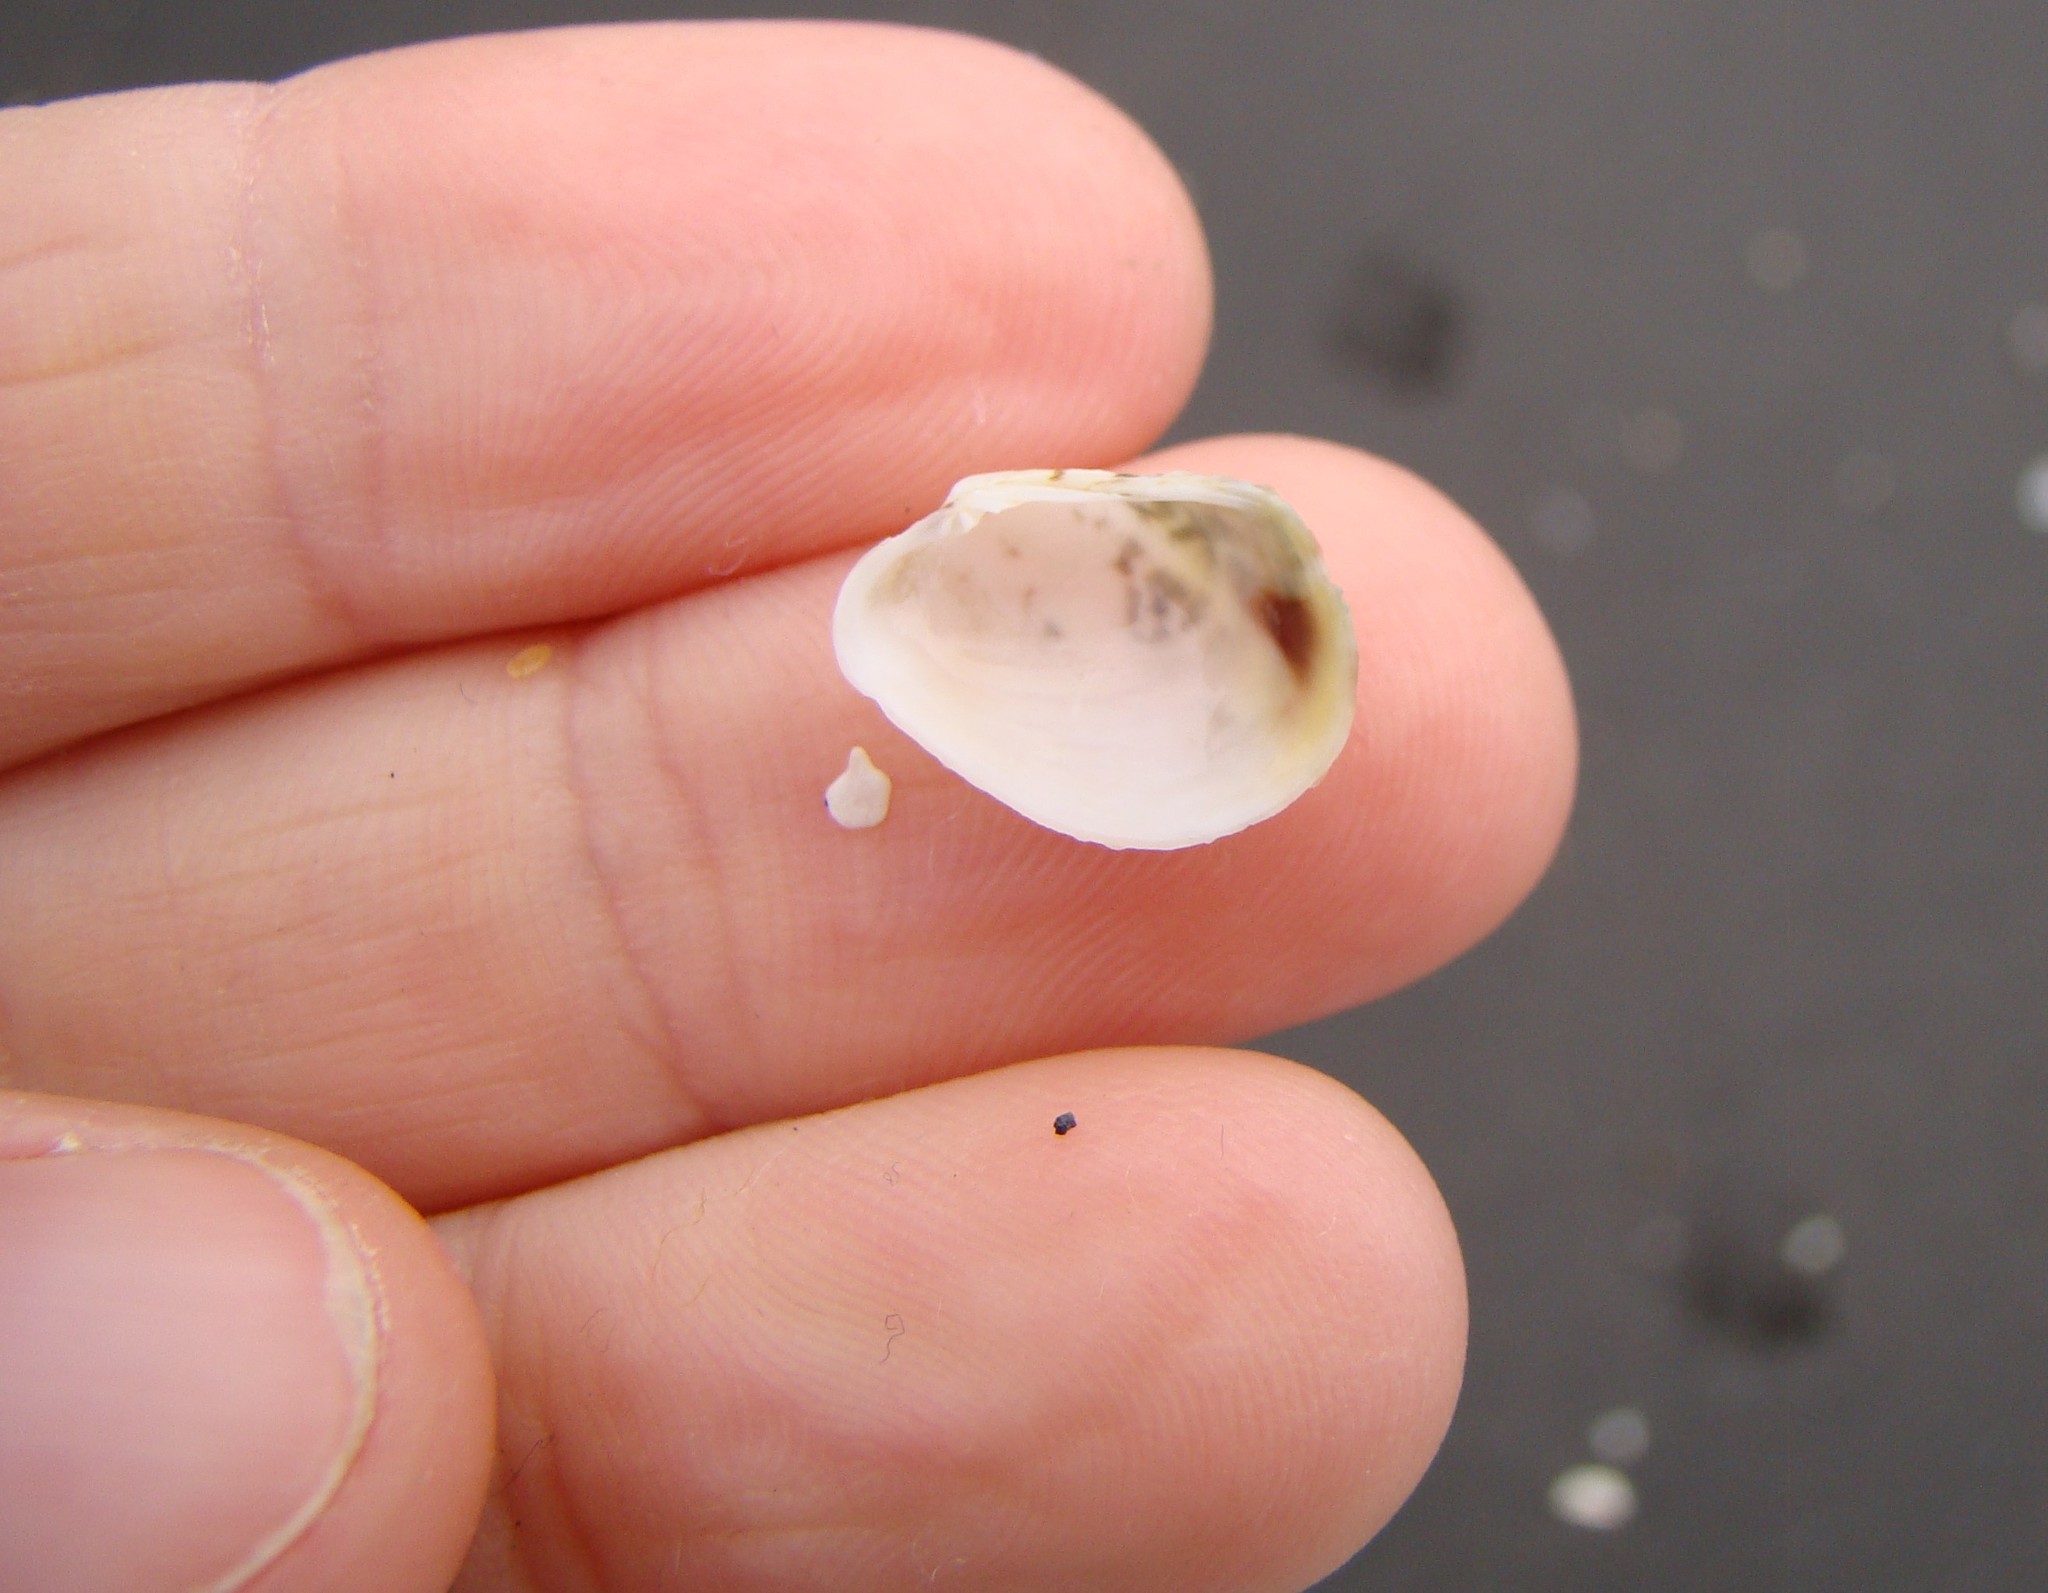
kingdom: Animalia
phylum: Mollusca
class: Bivalvia
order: Venerida
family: Veneridae
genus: Irus
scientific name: Irus reflexus
